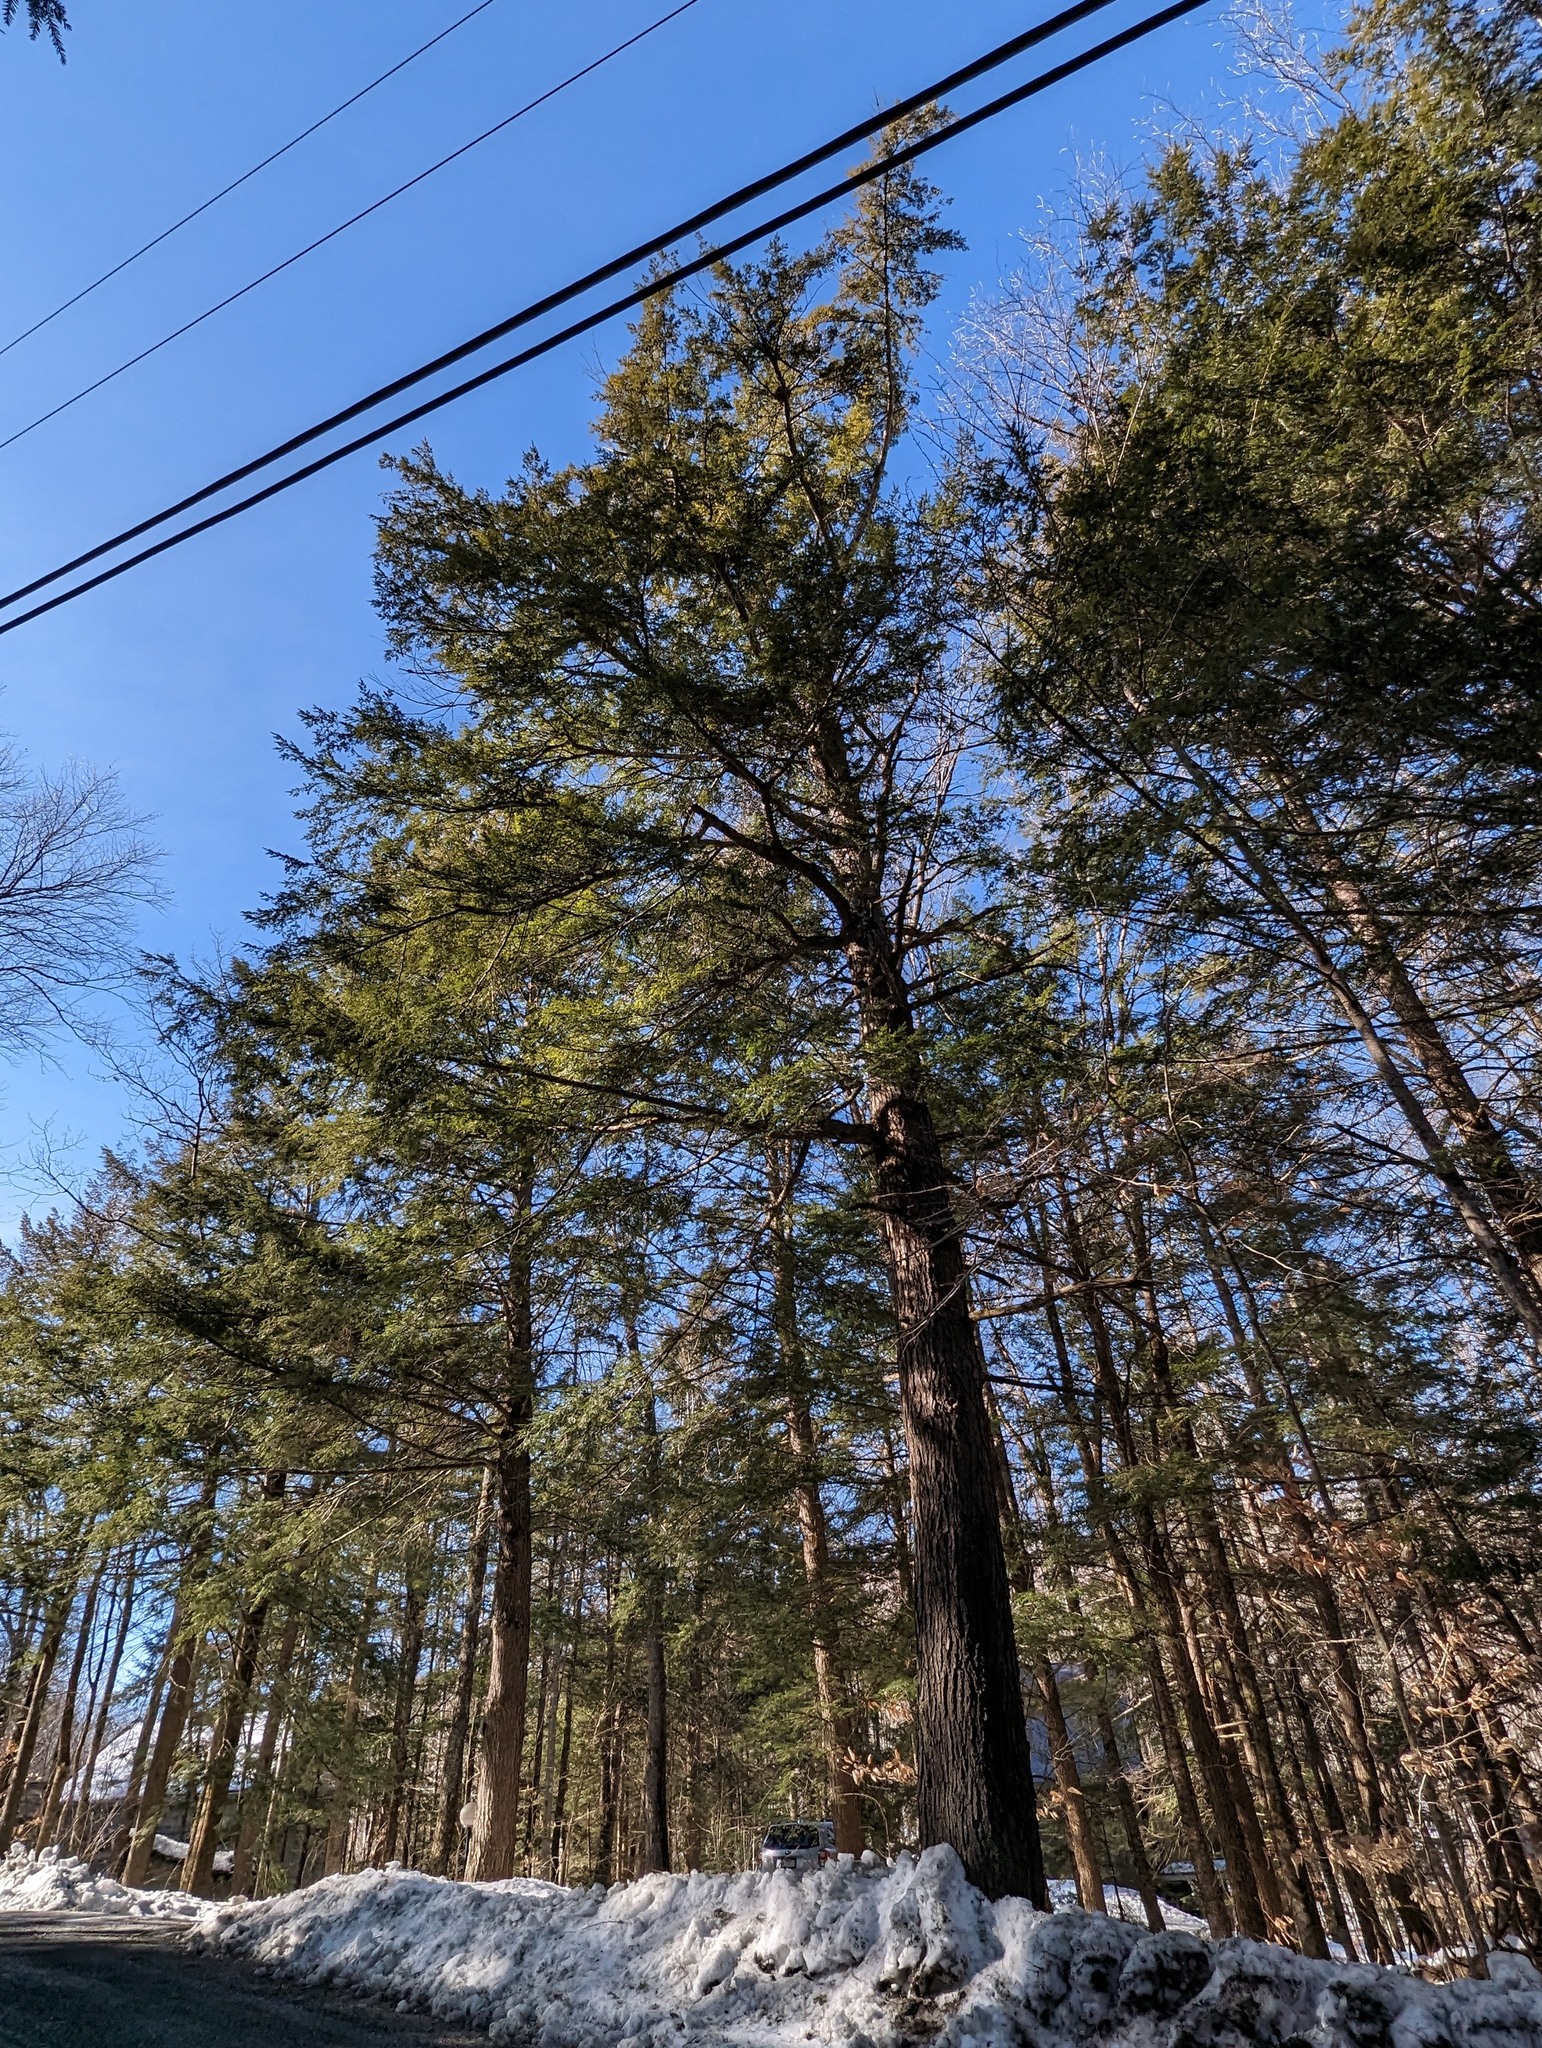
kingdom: Plantae
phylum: Tracheophyta
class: Pinopsida
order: Pinales
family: Pinaceae
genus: Tsuga
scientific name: Tsuga canadensis
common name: Eastern hemlock
